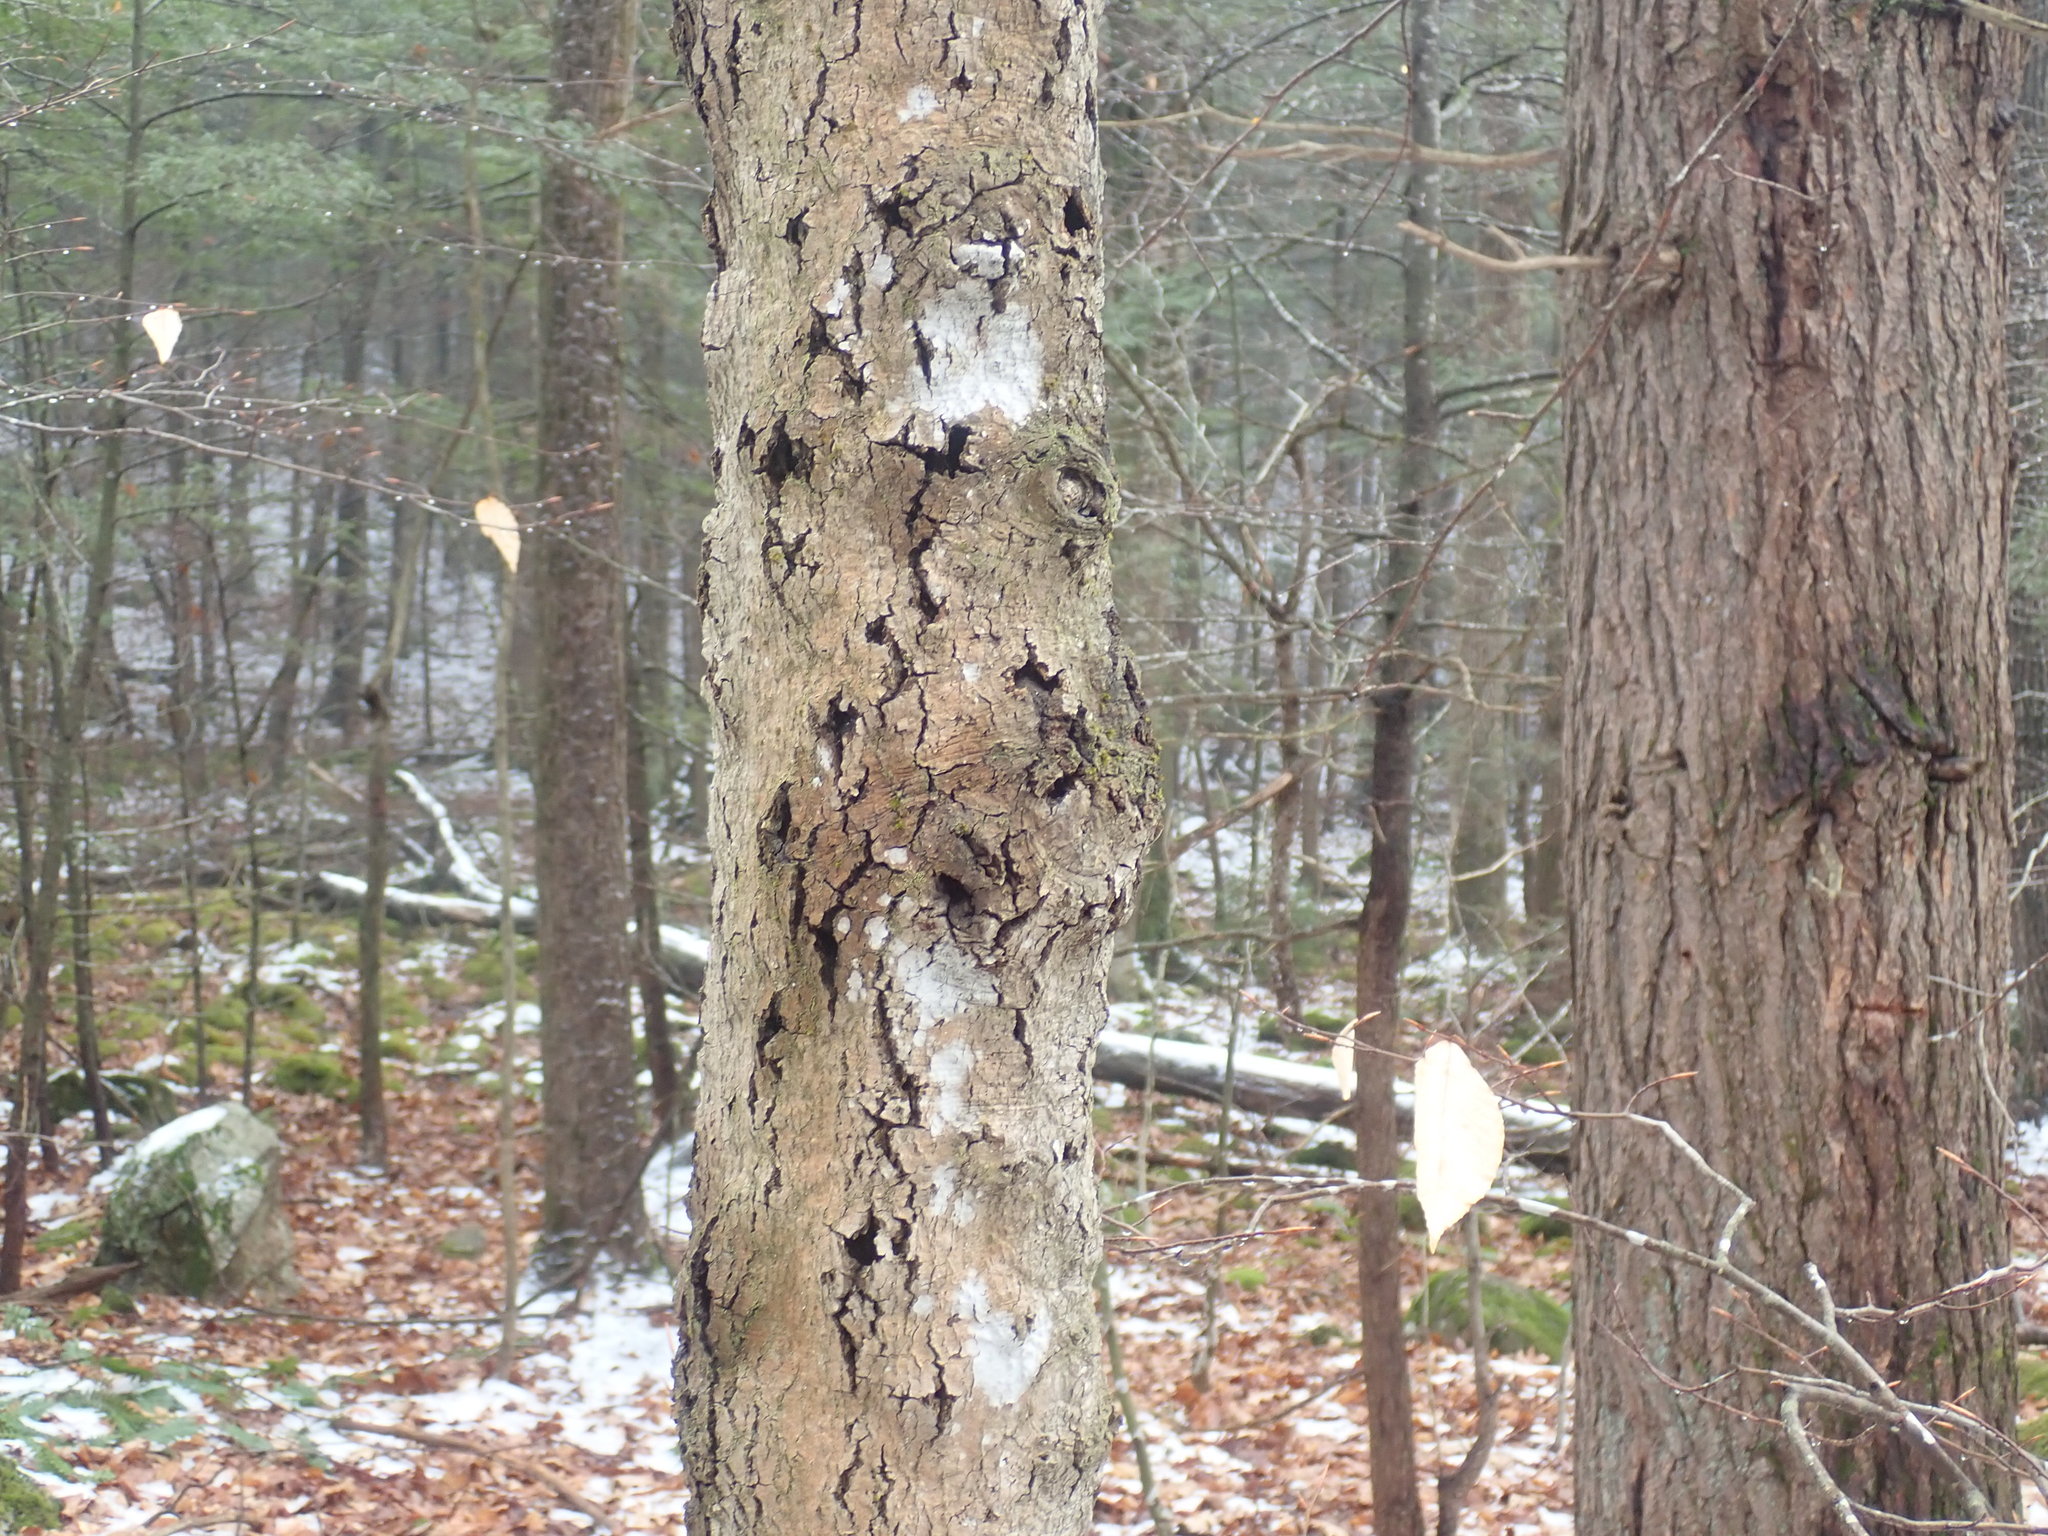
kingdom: Fungi
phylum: Ascomycota
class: Sordariomycetes
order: Hypocreales
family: Nectriaceae
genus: Neonectria
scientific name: Neonectria faginata
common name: Beech bark canker
